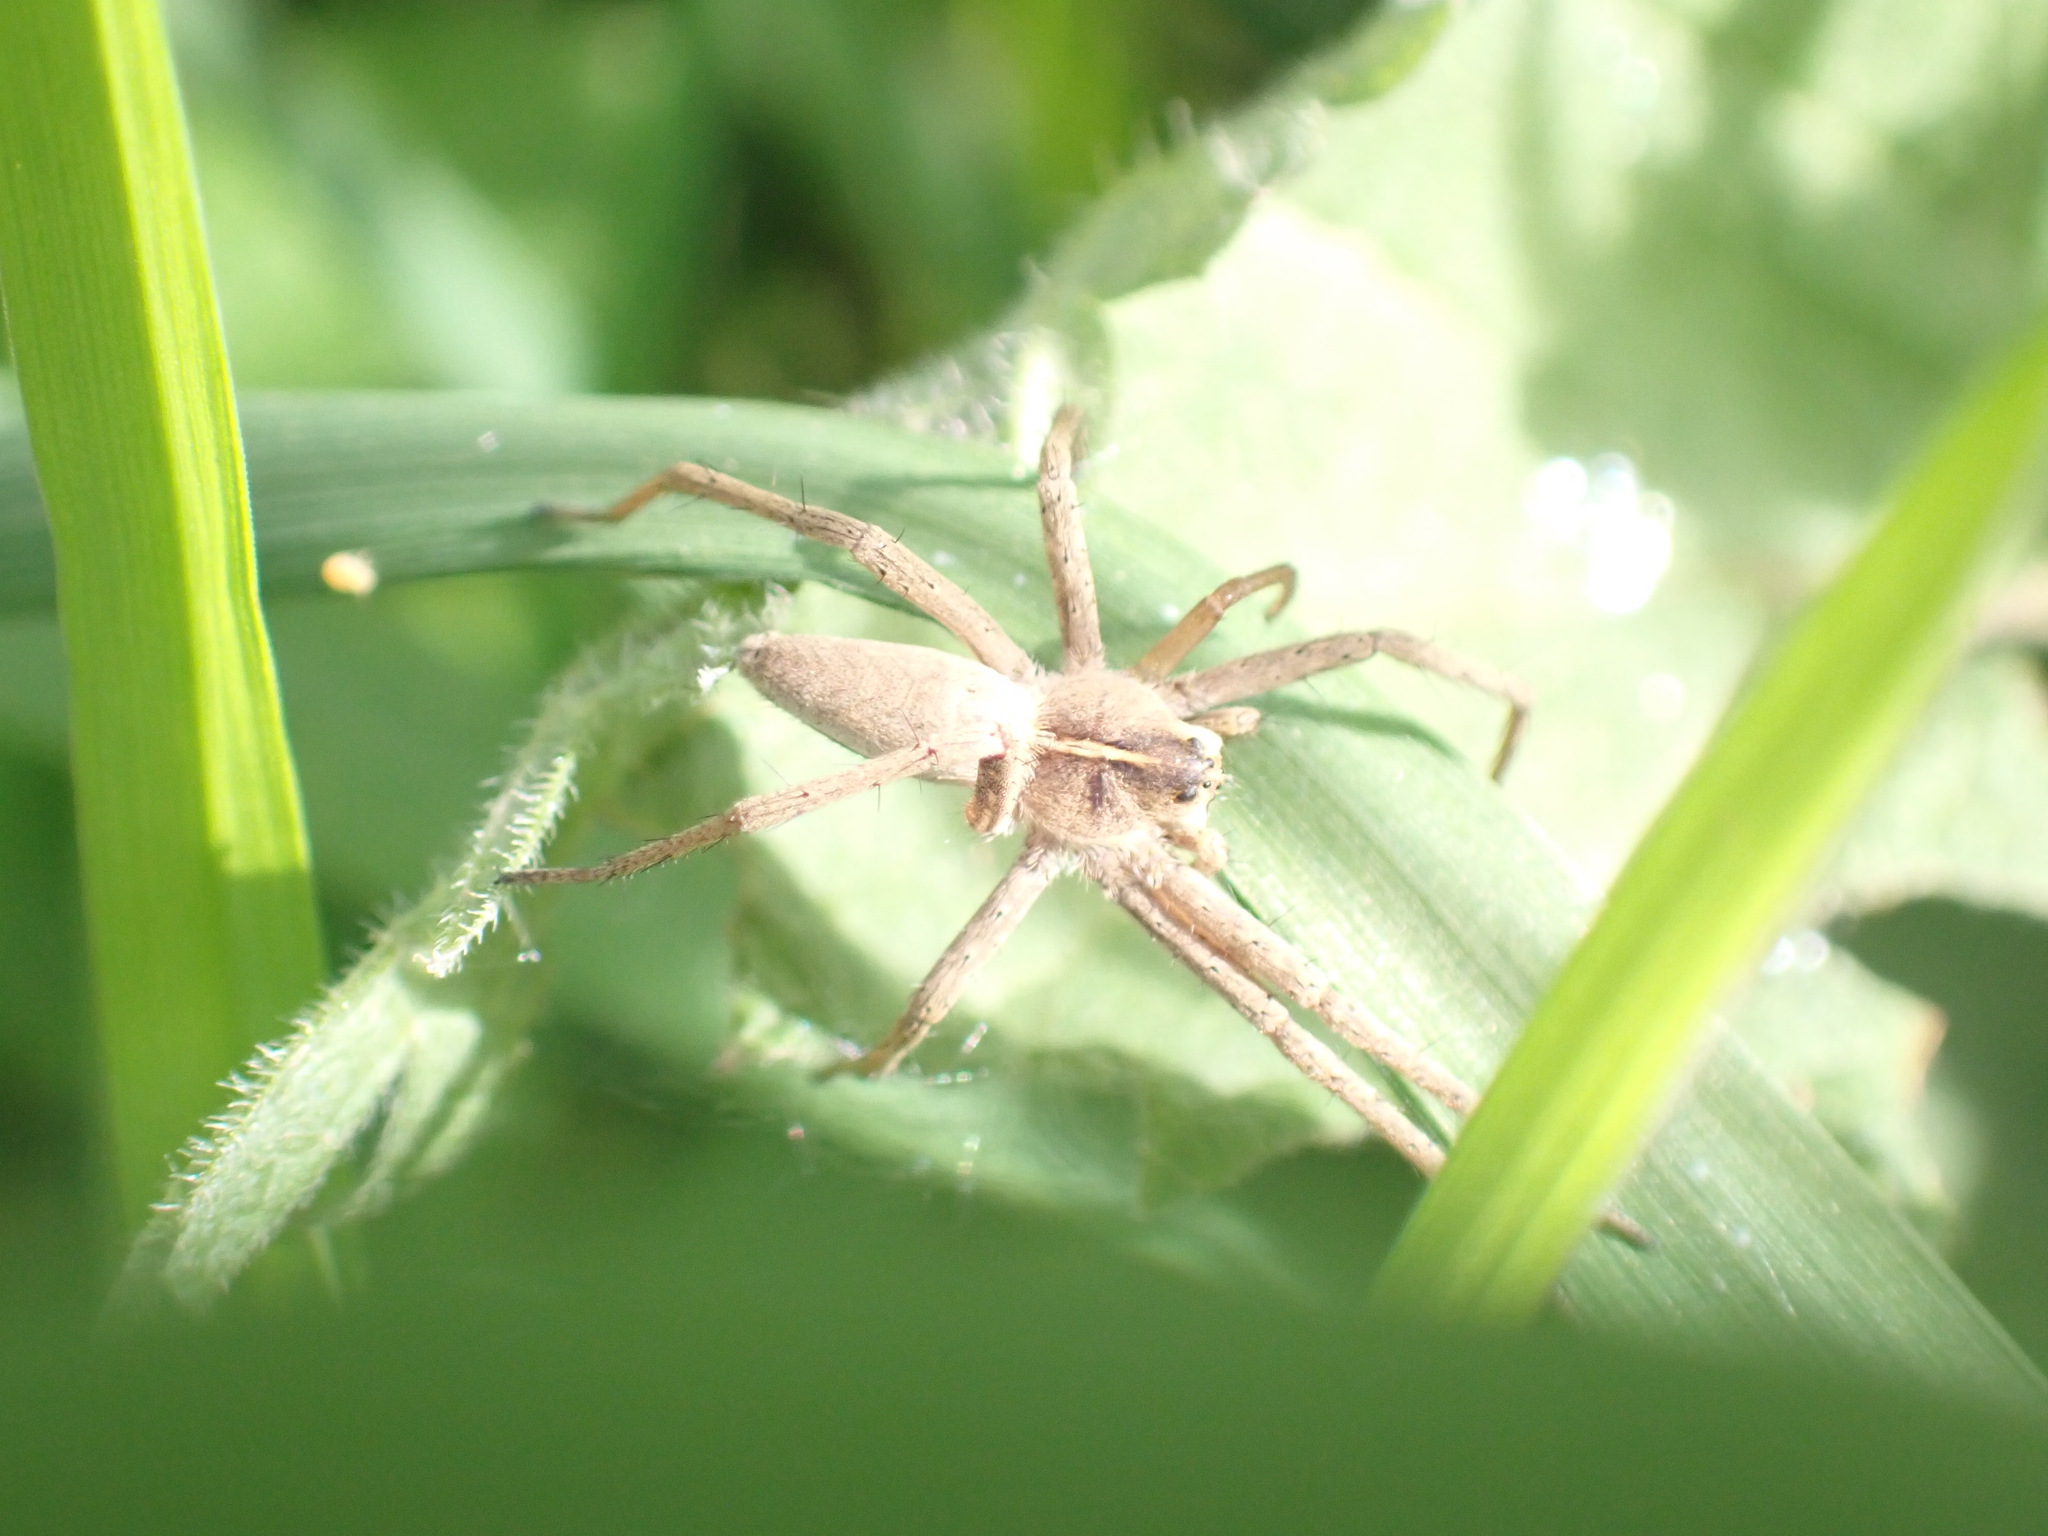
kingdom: Animalia
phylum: Arthropoda
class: Arachnida
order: Araneae
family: Pisauridae
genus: Pisaura
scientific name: Pisaura mirabilis
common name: Tent spider
